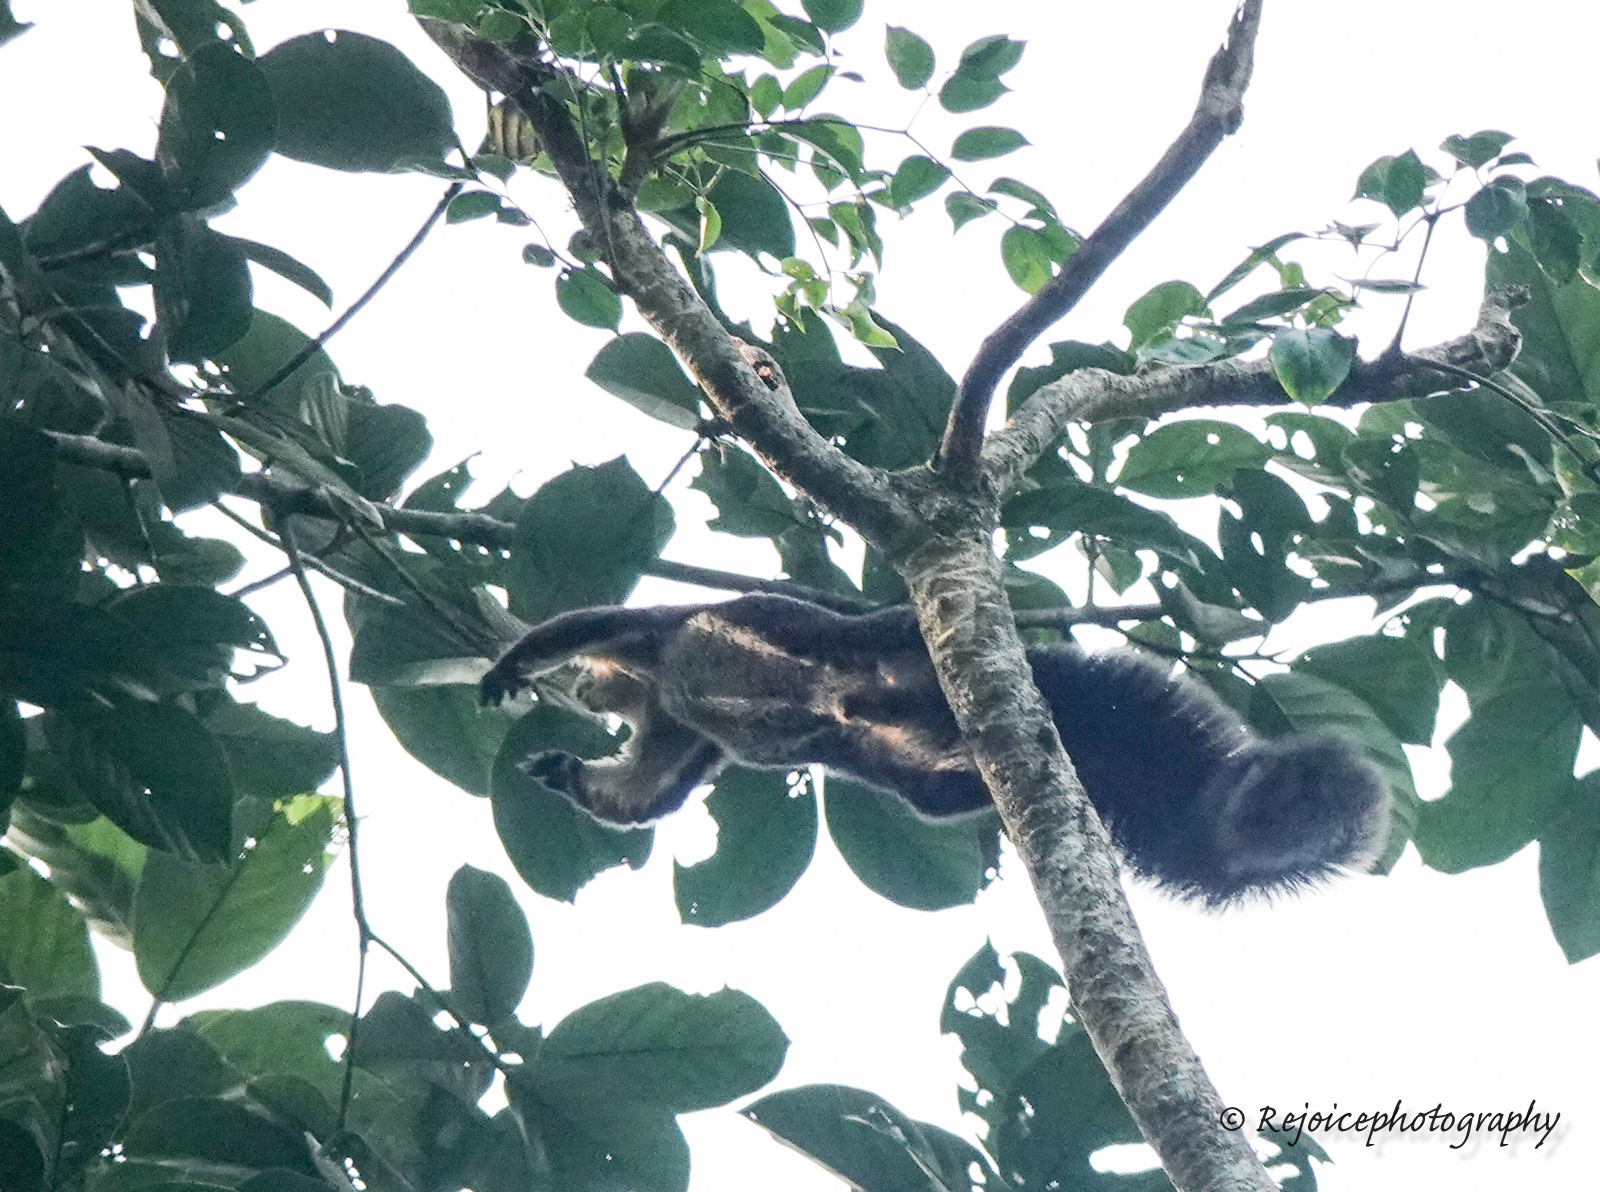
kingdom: Animalia
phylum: Chordata
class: Mammalia
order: Rodentia
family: Sciuridae
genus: Ratufa
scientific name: Ratufa bicolor
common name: Black giant squirrel
